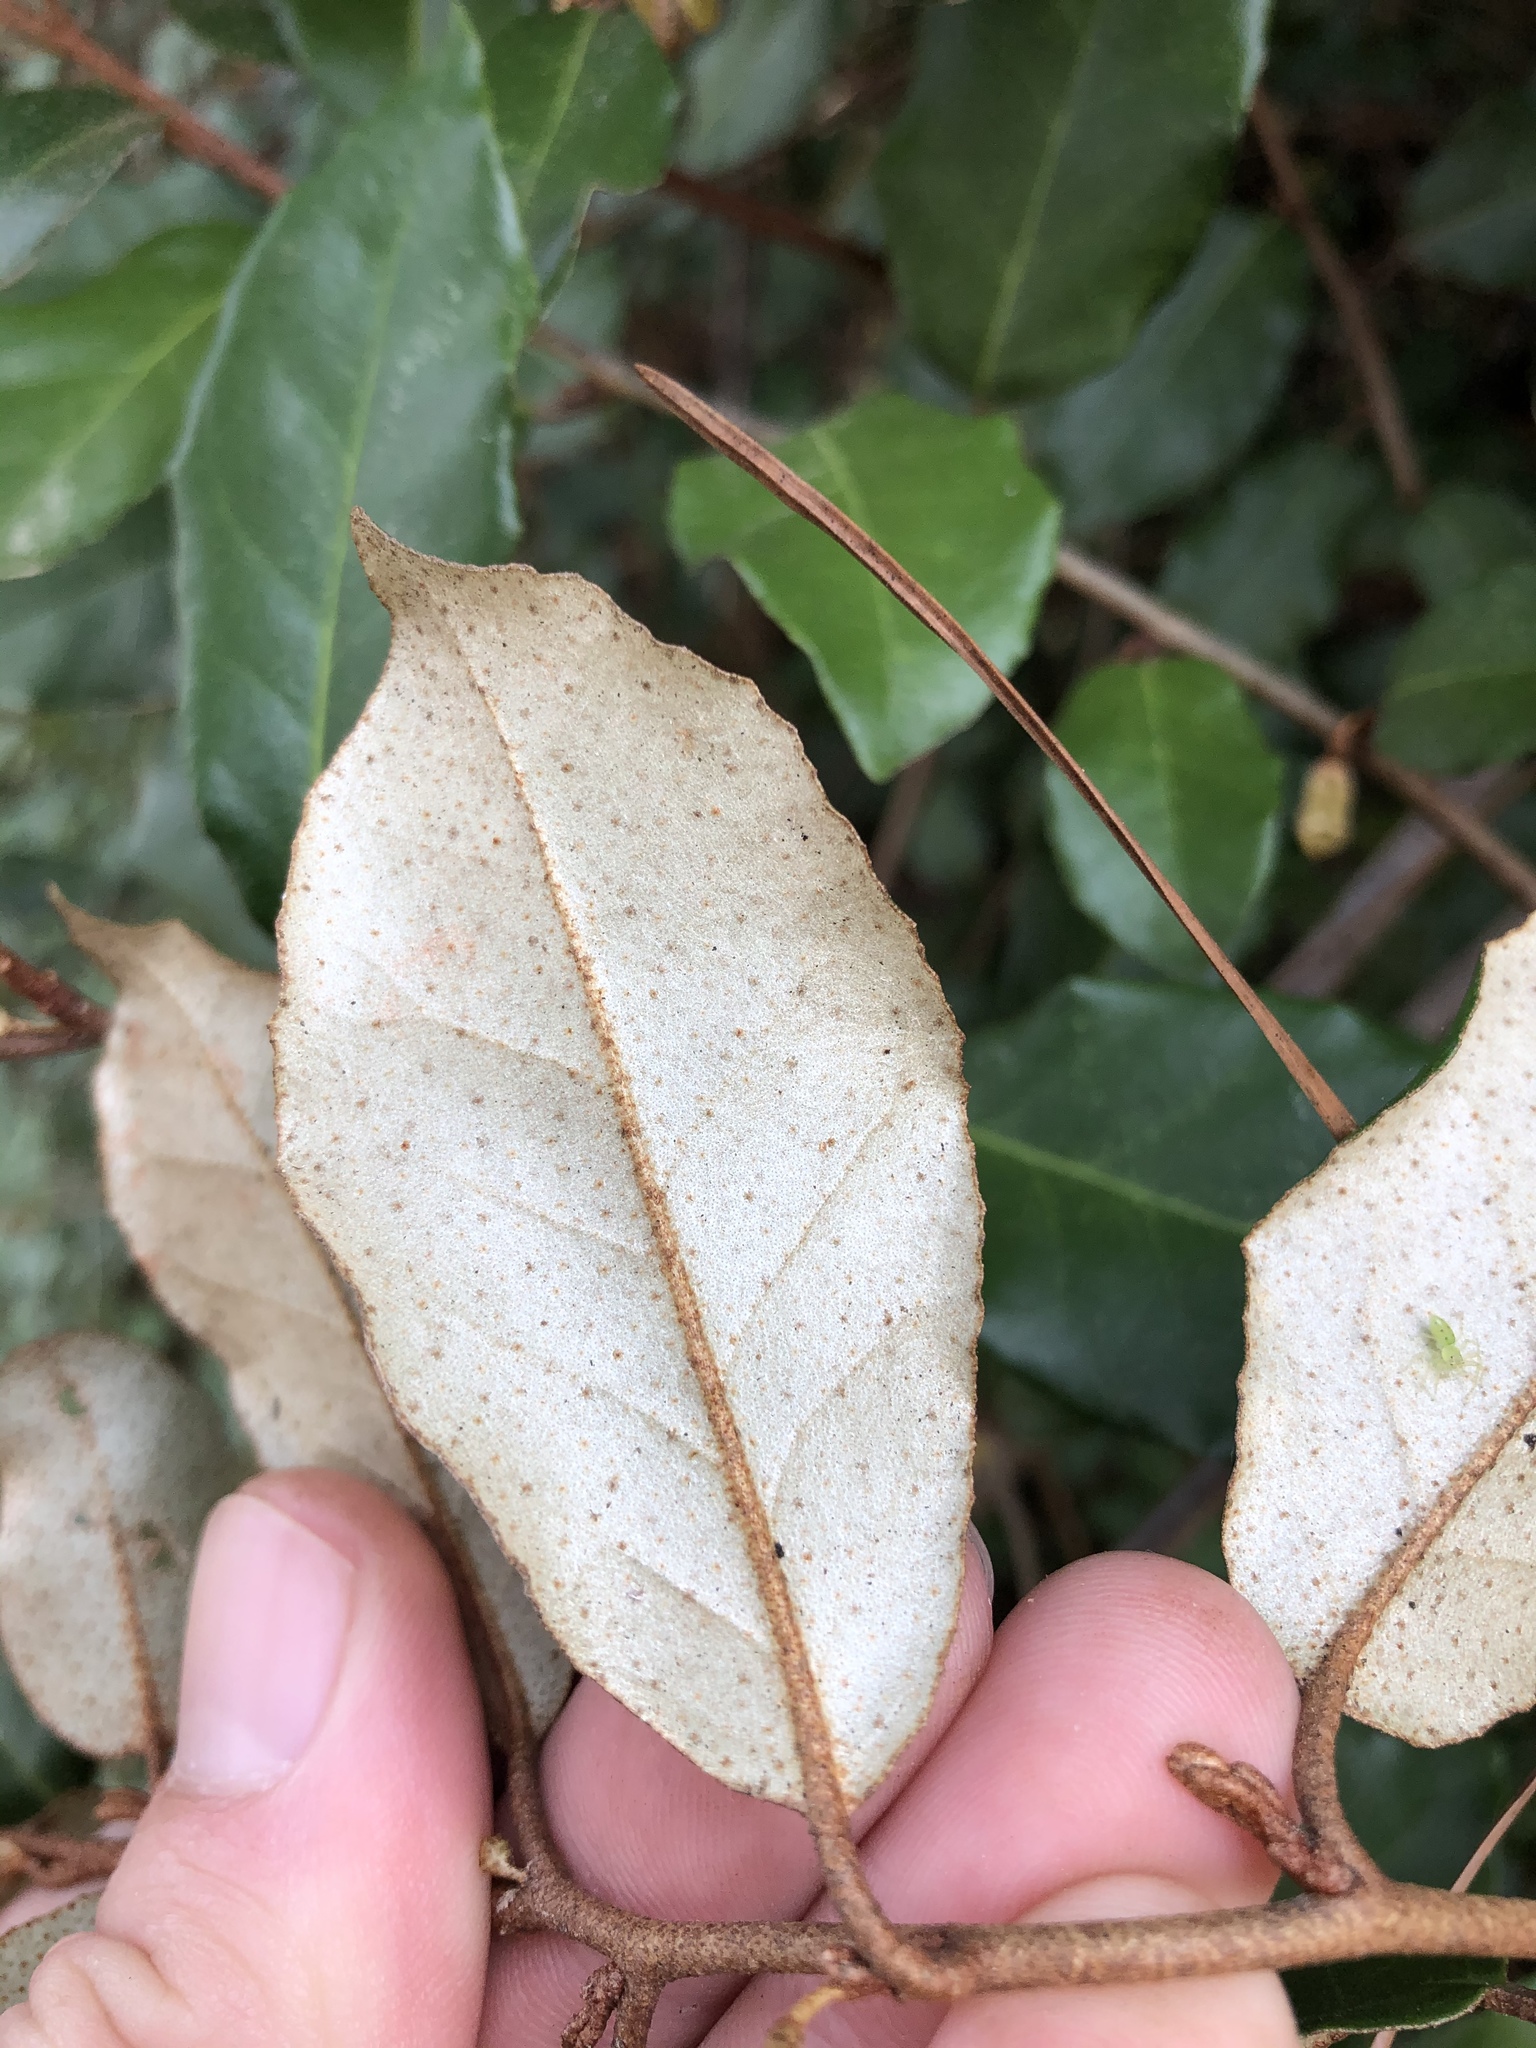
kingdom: Plantae
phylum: Tracheophyta
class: Magnoliopsida
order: Rosales
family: Elaeagnaceae
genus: Elaeagnus
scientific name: Elaeagnus pungens
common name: Spiny oleaster
